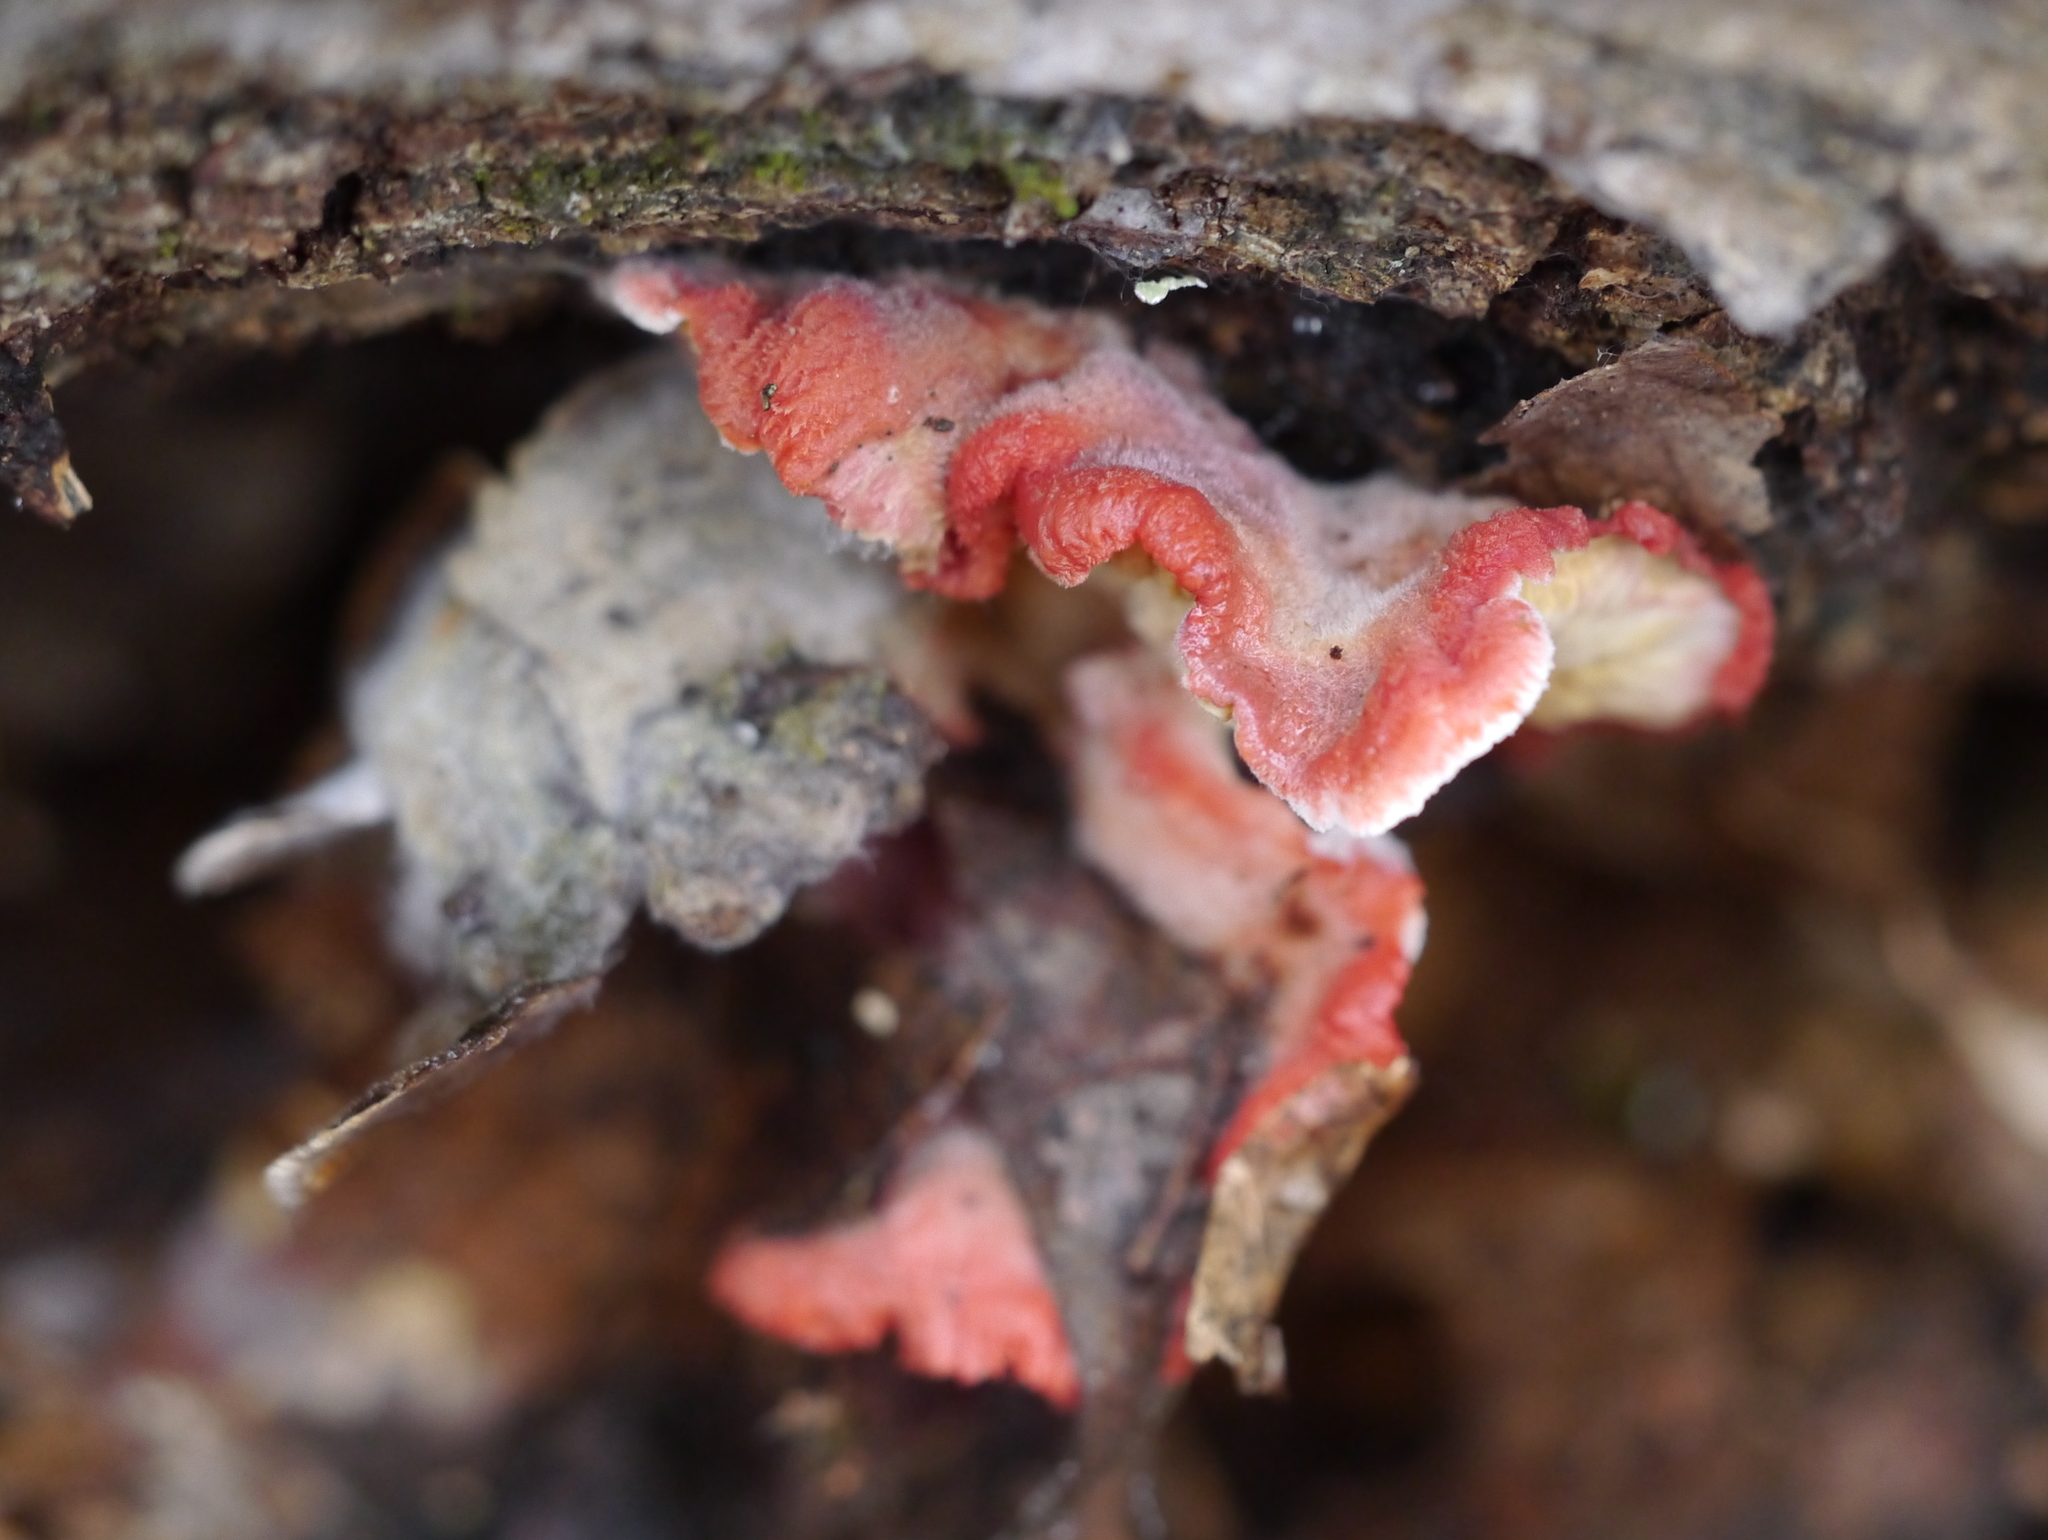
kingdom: Fungi
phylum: Basidiomycota
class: Agaricomycetes
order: Polyporales
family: Irpicaceae
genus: Byssomerulius
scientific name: Byssomerulius incarnatus
